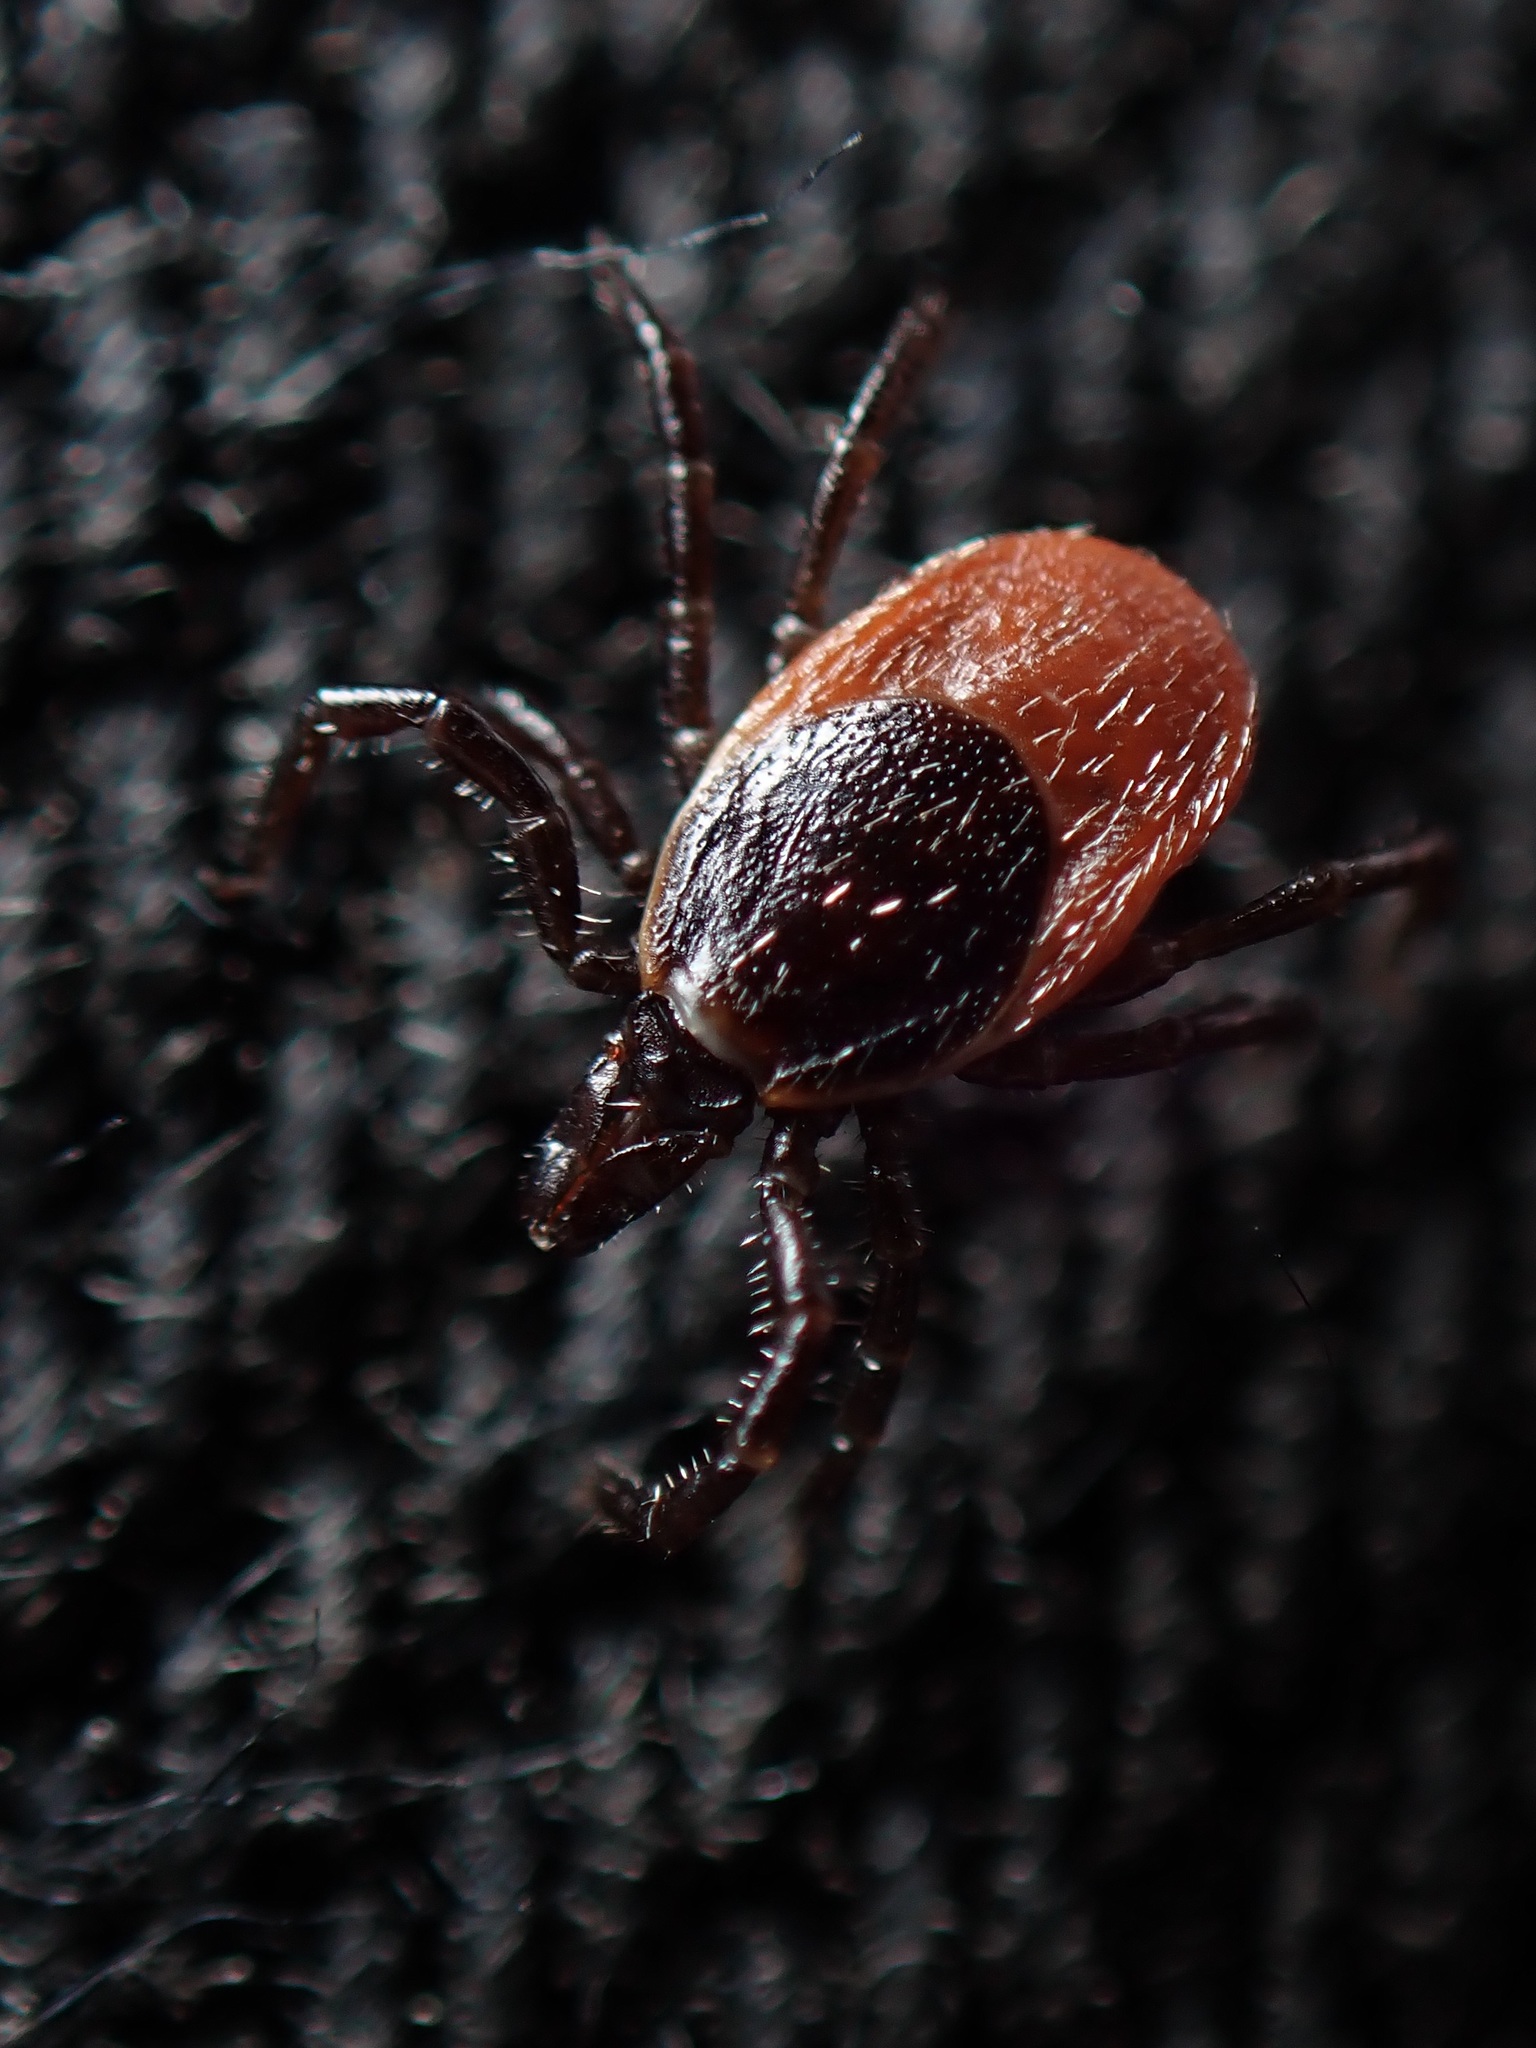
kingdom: Animalia
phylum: Arthropoda
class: Arachnida
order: Ixodida
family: Ixodidae
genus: Ixodes
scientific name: Ixodes ricinus
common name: Castor bean tick
